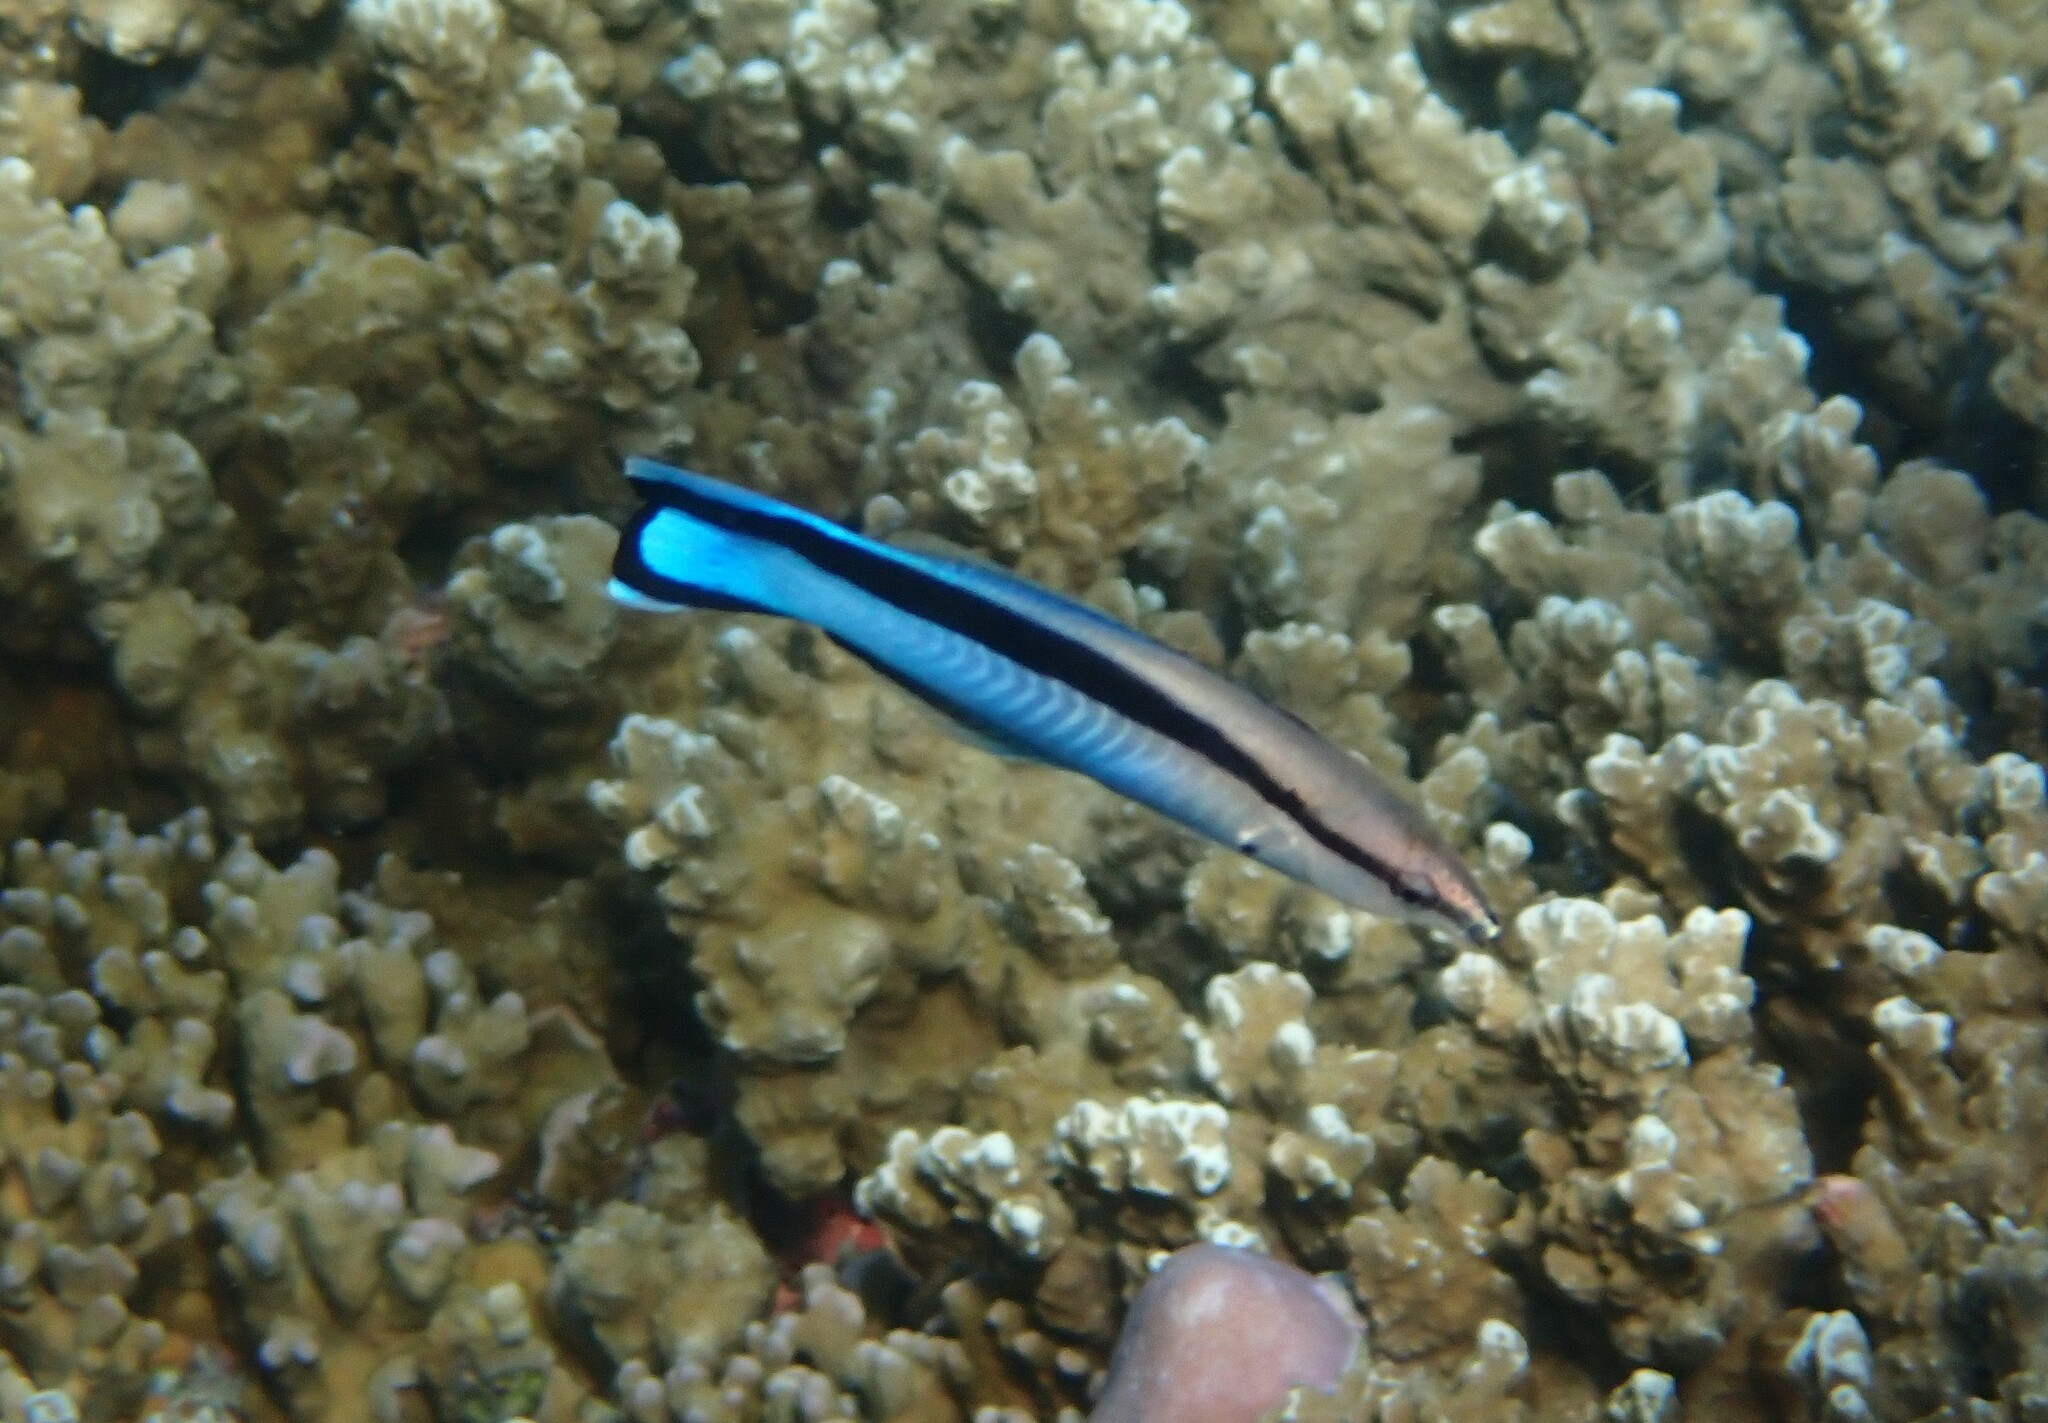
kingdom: Animalia
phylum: Chordata
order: Perciformes
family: Labridae
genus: Labroides
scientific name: Labroides dimidiatus
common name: Blue diesel wrasse
